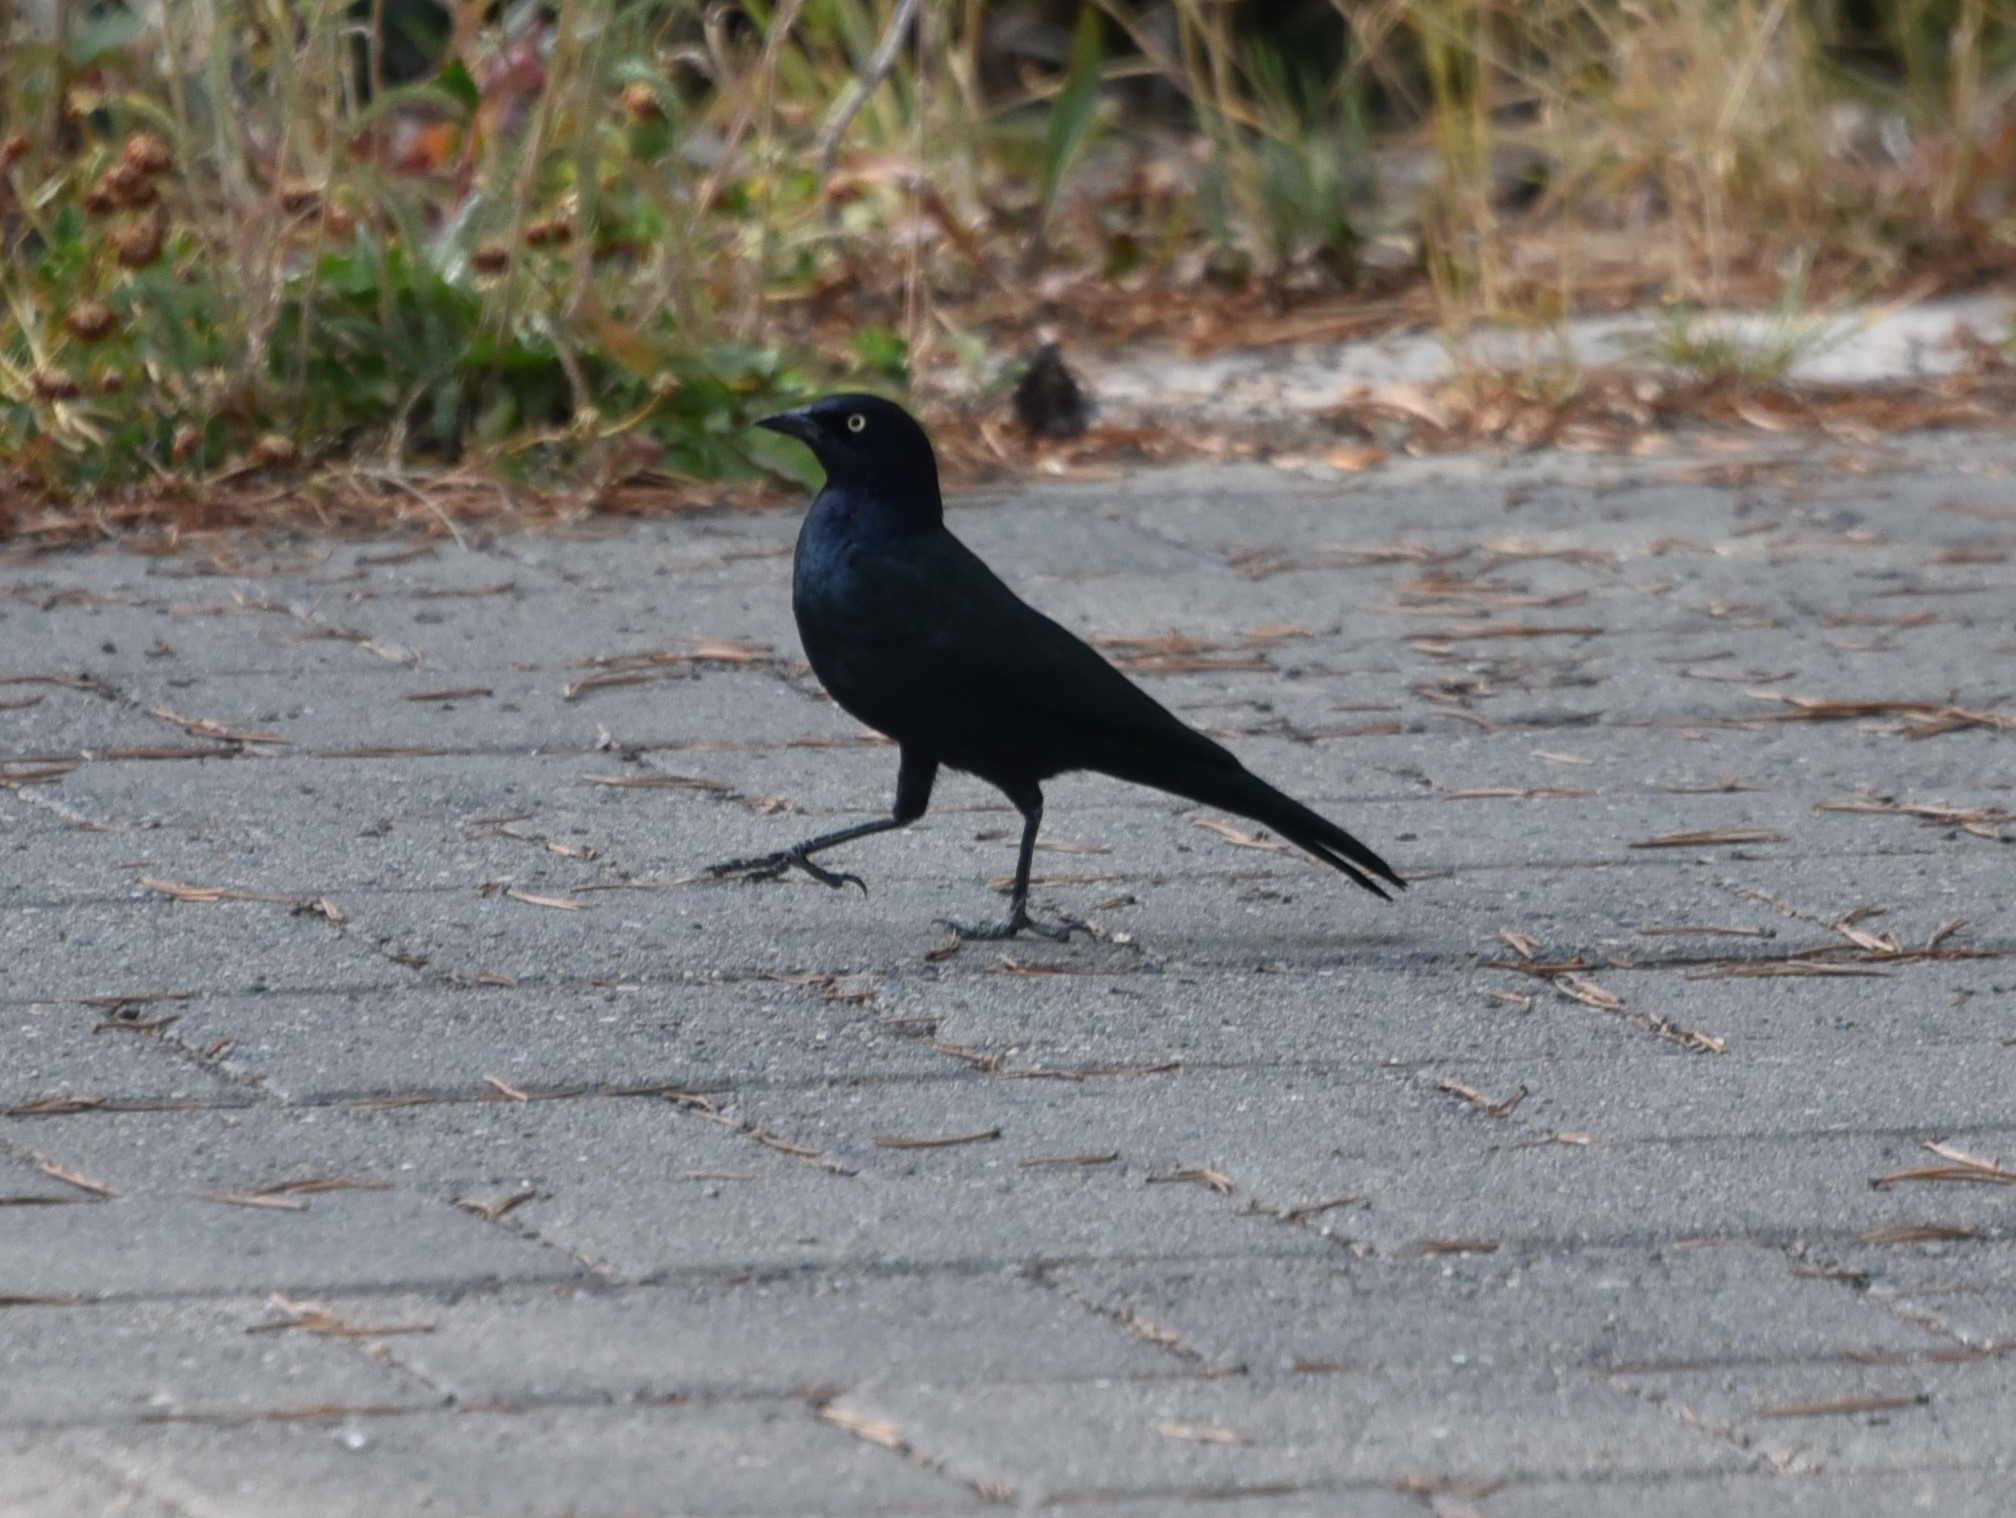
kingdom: Animalia
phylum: Chordata
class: Aves
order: Passeriformes
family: Icteridae
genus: Euphagus
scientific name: Euphagus cyanocephalus
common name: Brewer's blackbird
